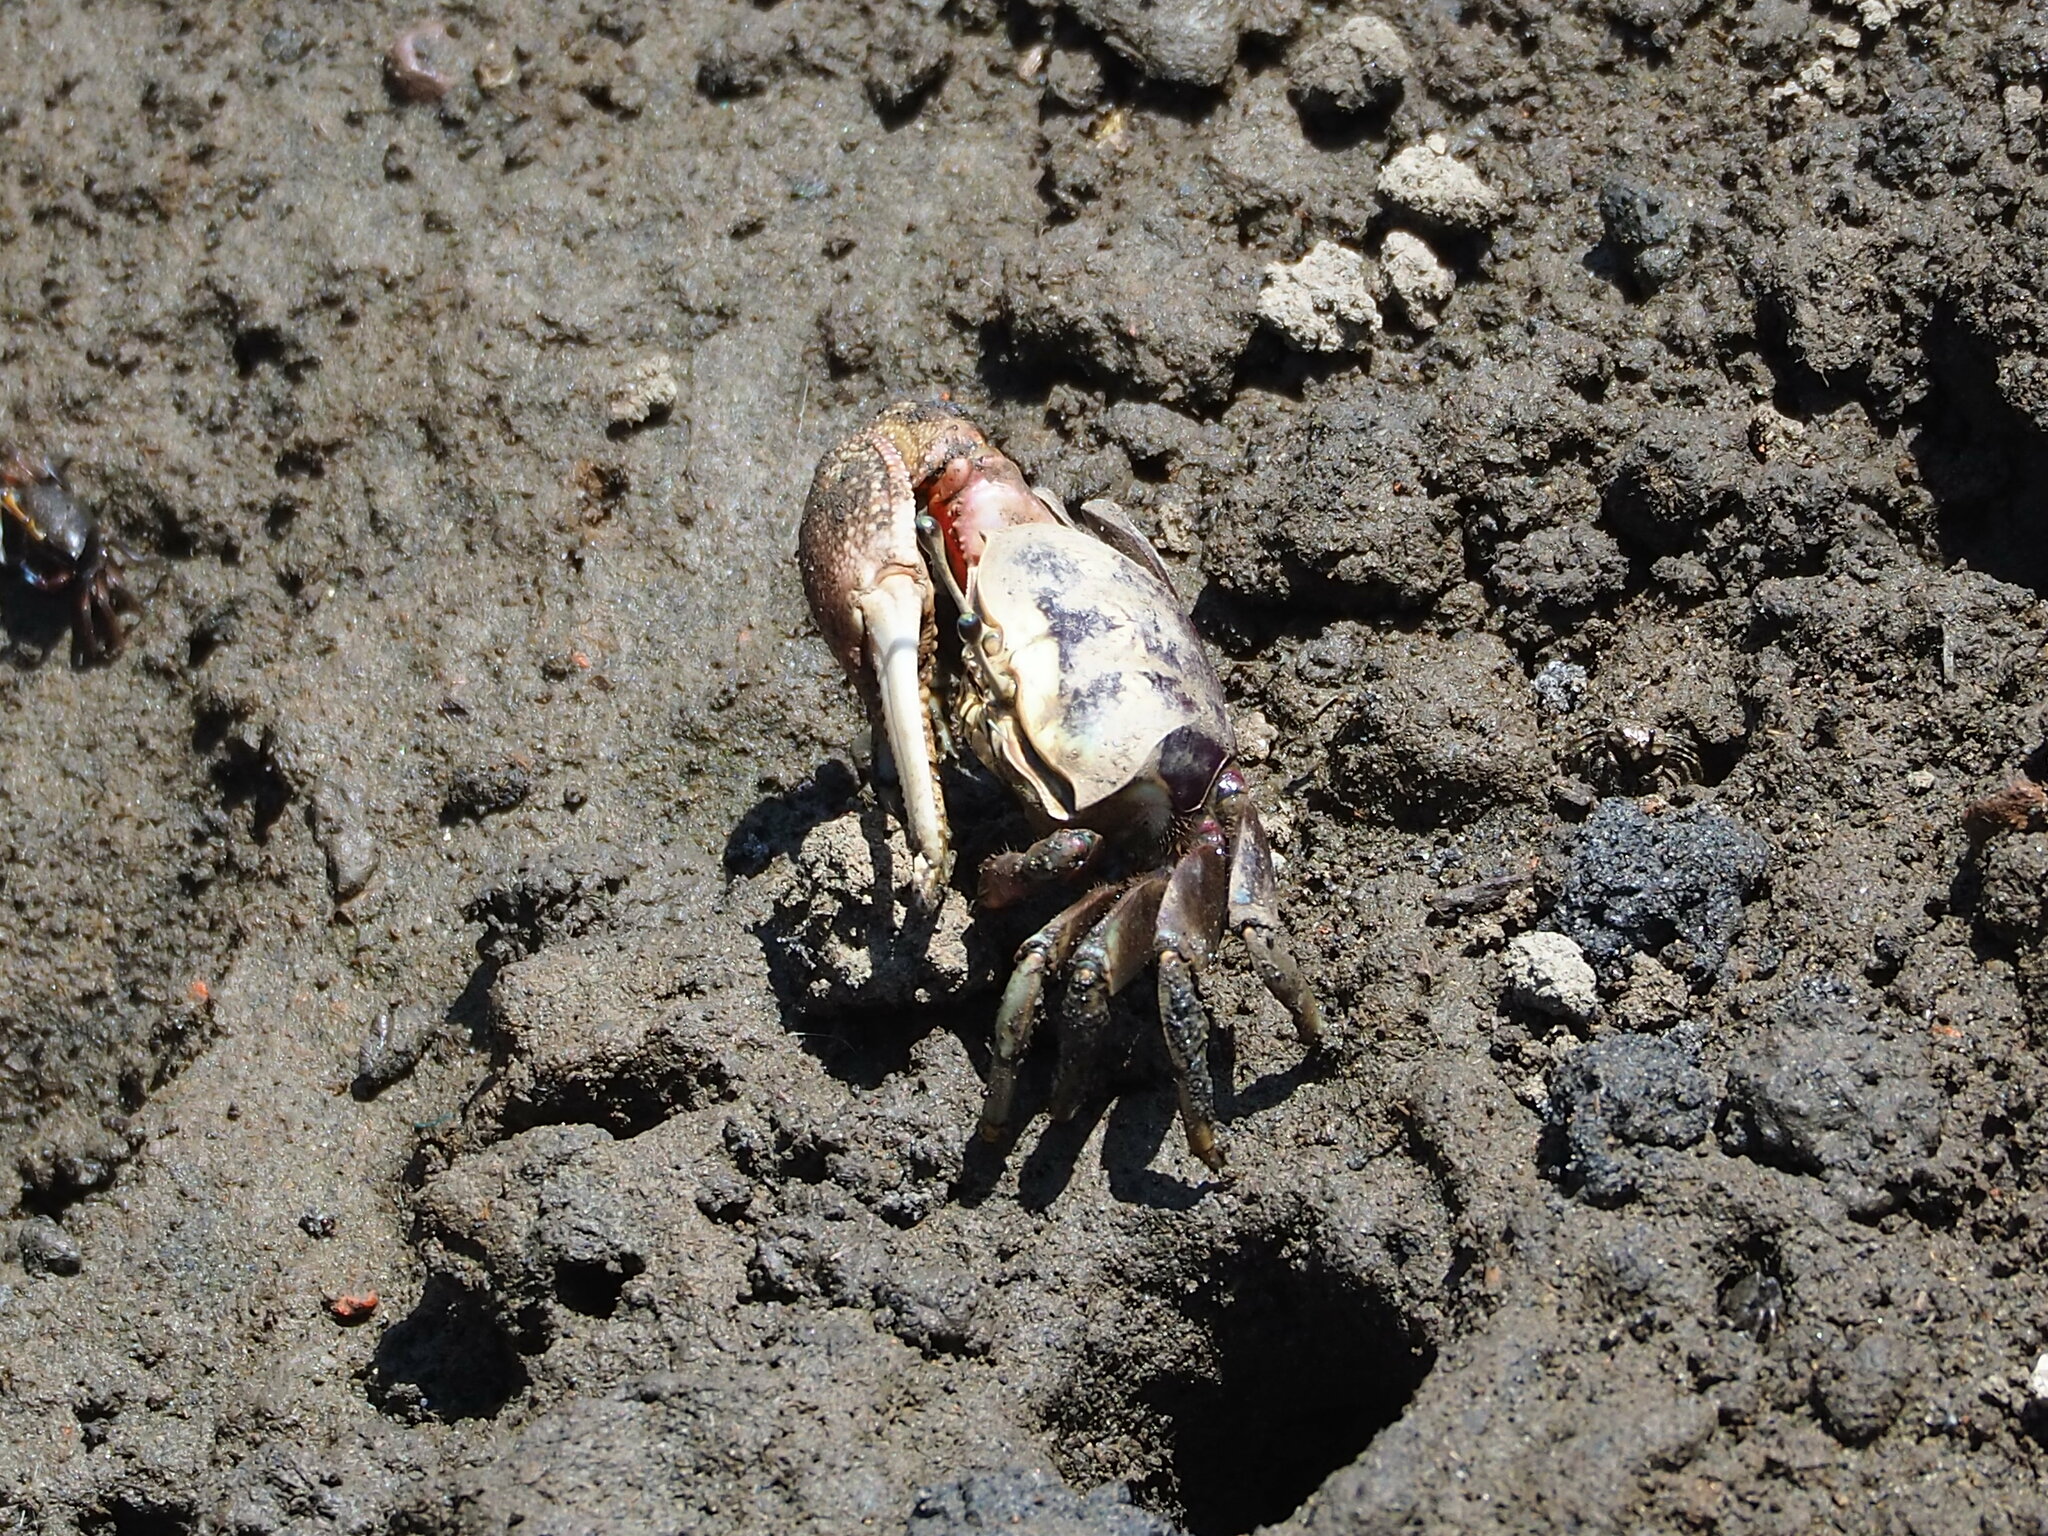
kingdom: Animalia
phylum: Arthropoda
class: Malacostraca
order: Decapoda
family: Ocypodidae
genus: Tubuca
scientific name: Tubuca arcuata
